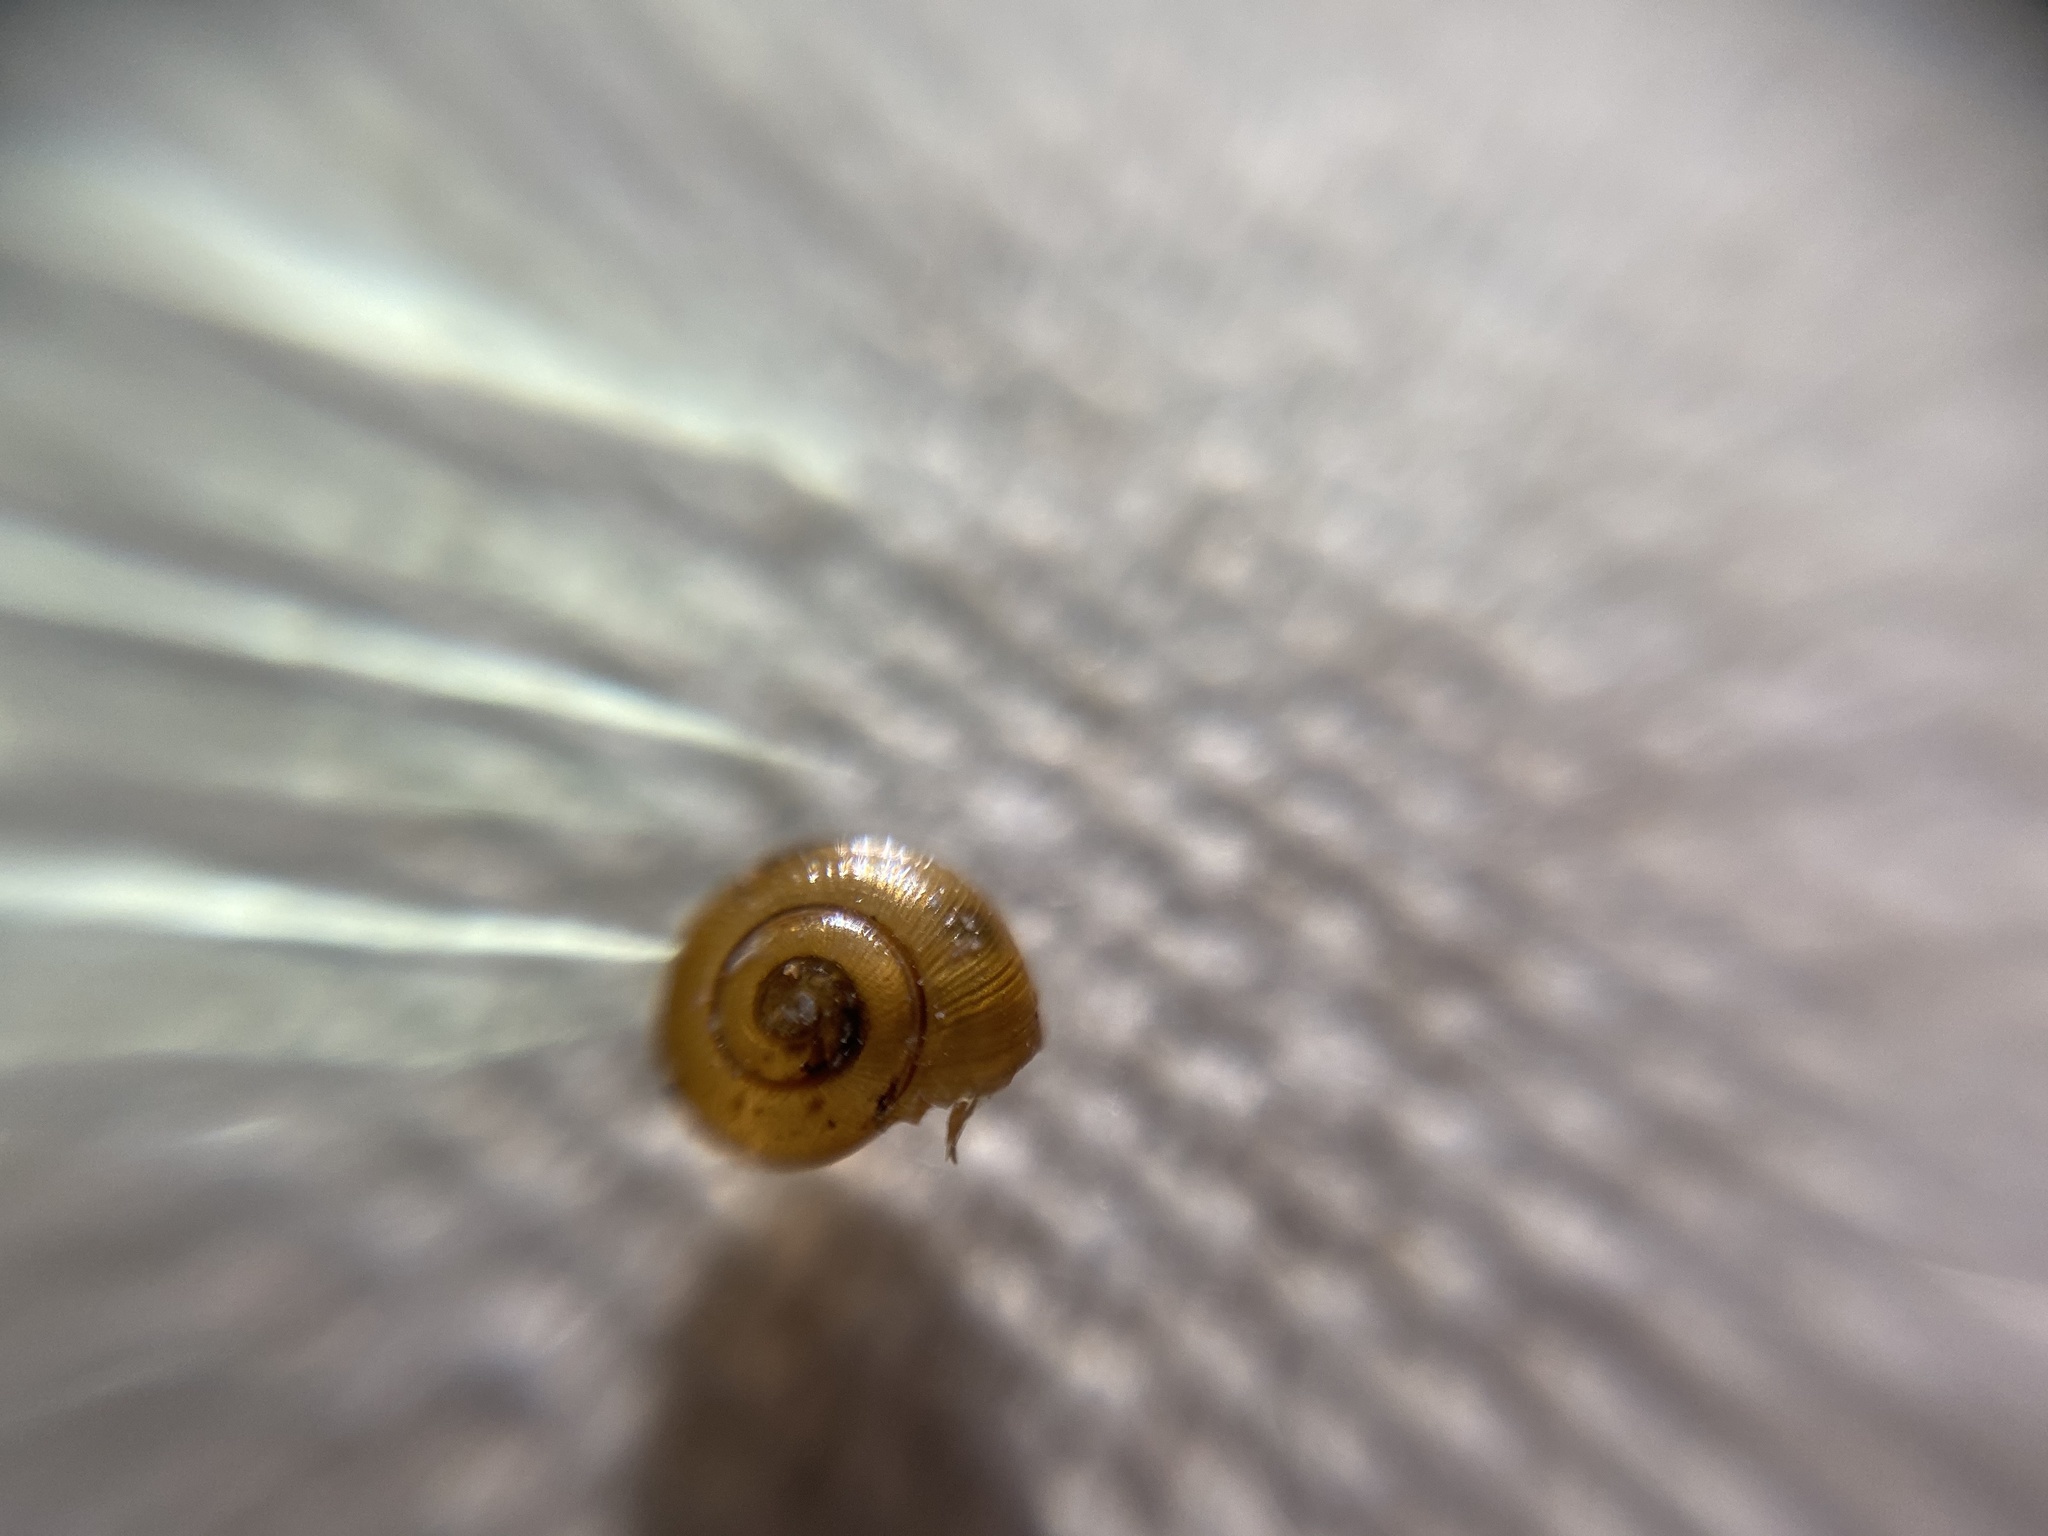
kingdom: Animalia
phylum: Mollusca
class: Gastropoda
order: Stylommatophora
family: Gastrodontidae
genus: Perpolita
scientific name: Perpolita electrina
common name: Amber glass
